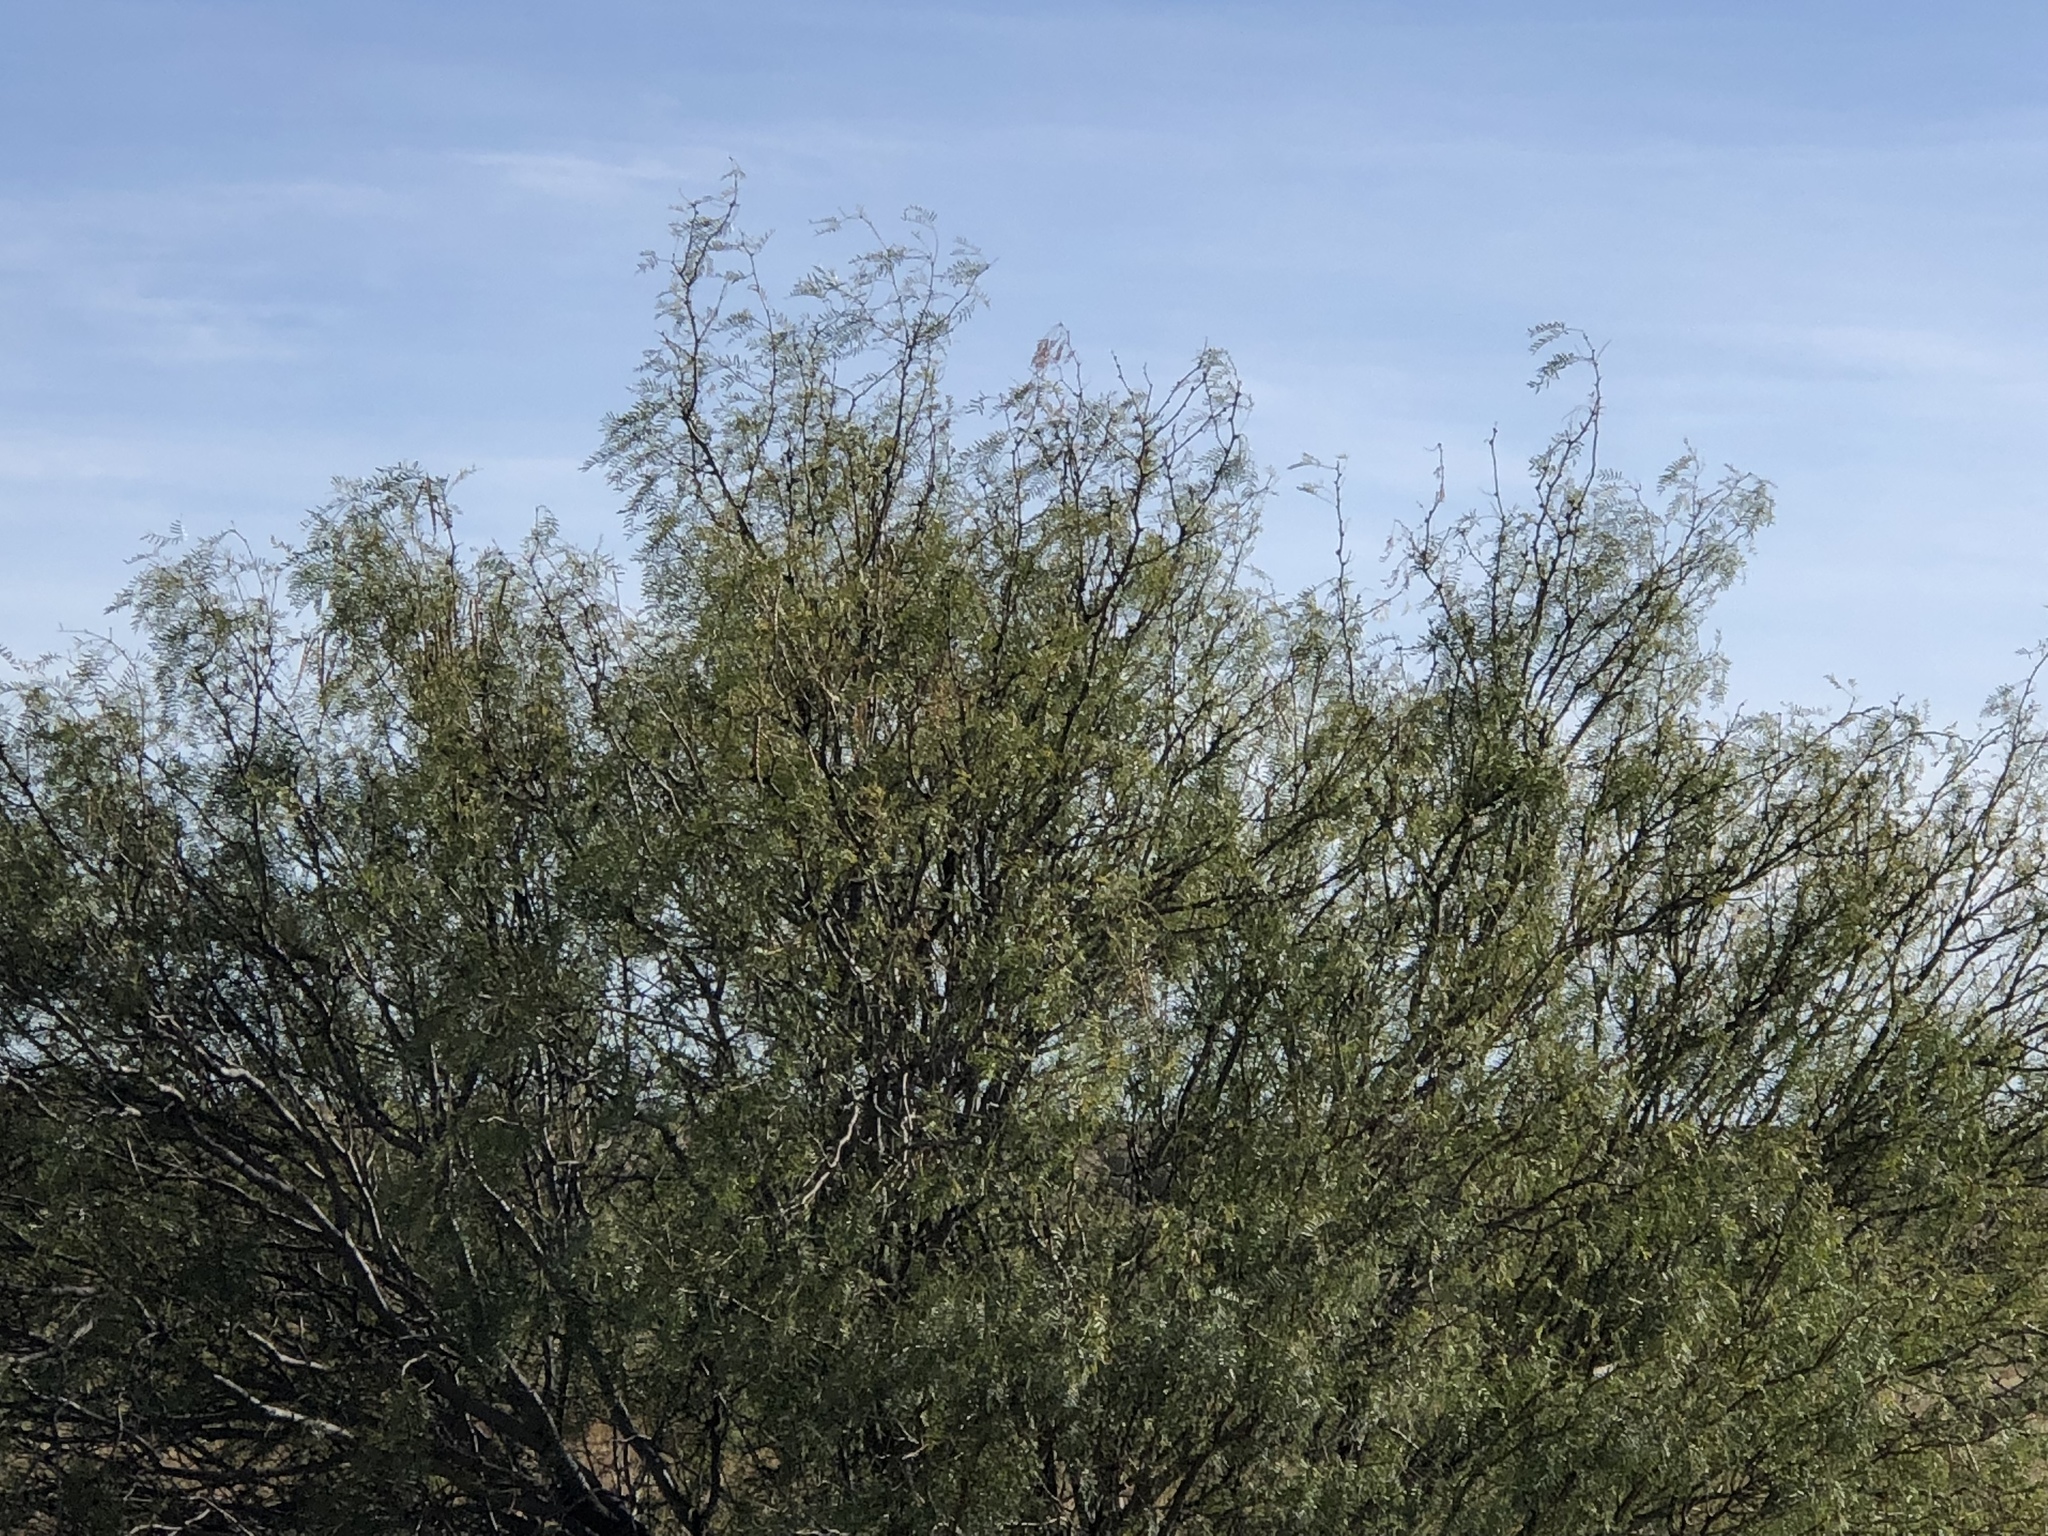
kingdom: Plantae
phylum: Tracheophyta
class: Magnoliopsida
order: Fabales
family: Fabaceae
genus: Prosopis
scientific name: Prosopis glandulosa
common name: Honey mesquite
